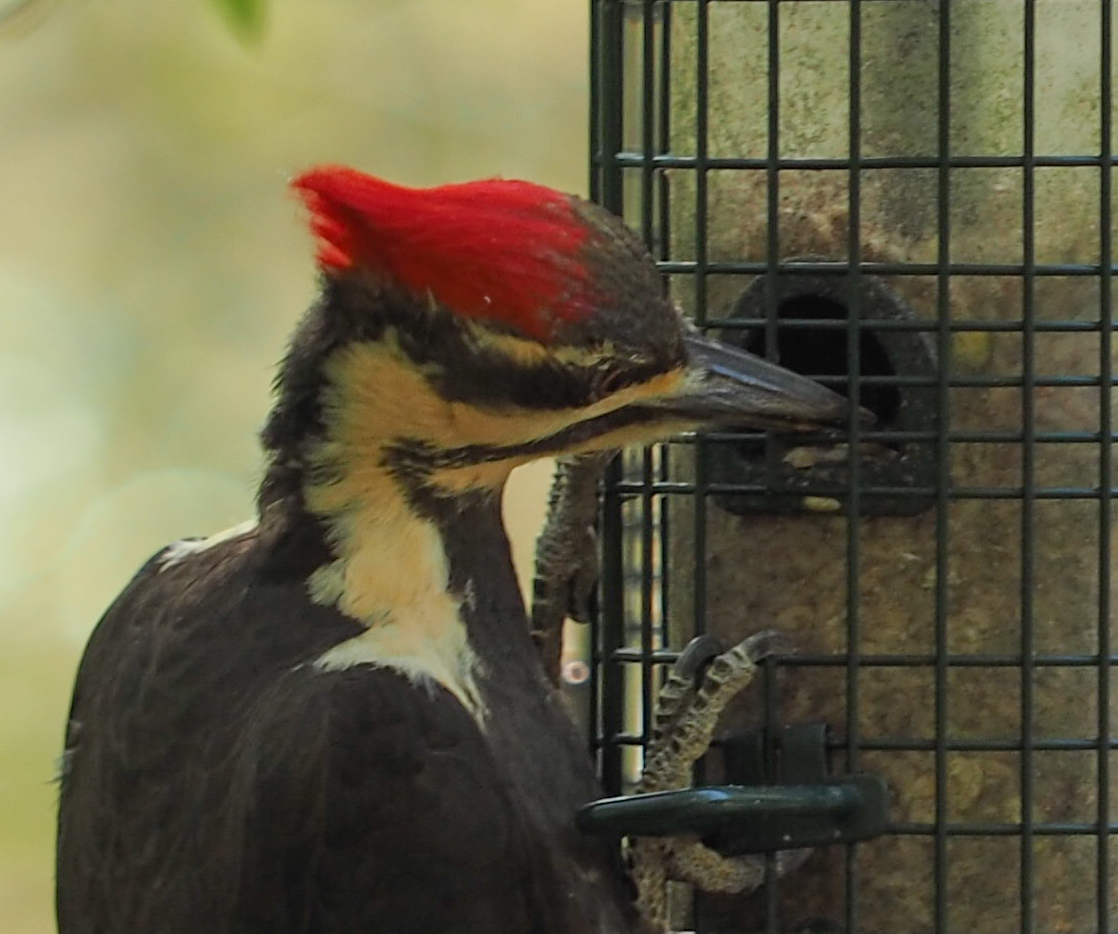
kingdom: Animalia
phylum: Chordata
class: Aves
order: Piciformes
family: Picidae
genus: Dryocopus
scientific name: Dryocopus pileatus
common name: Pileated woodpecker
